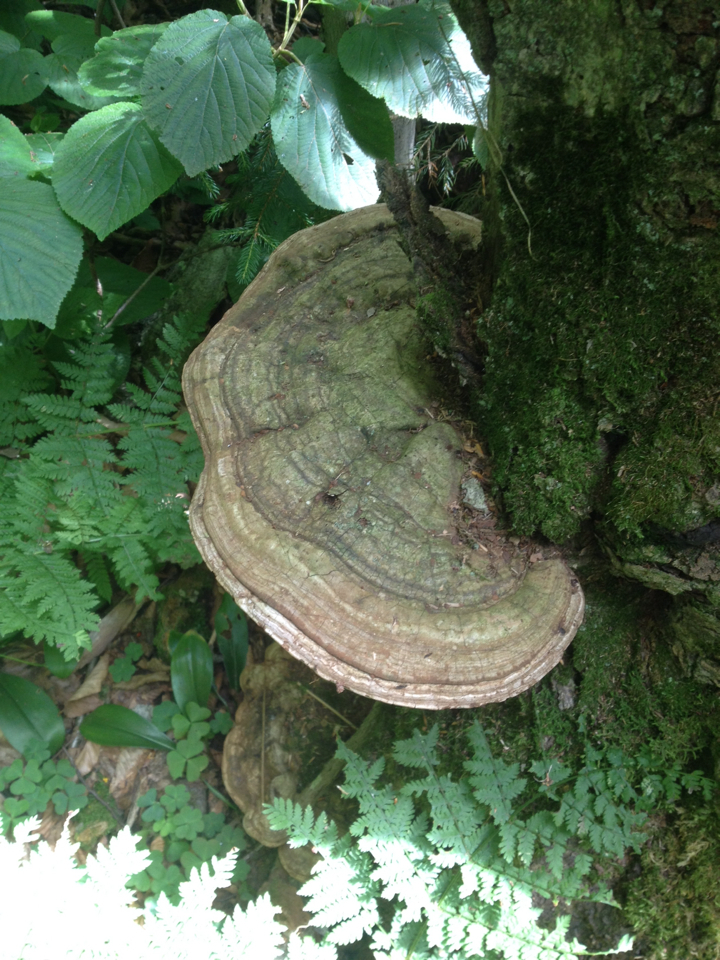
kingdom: Fungi
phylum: Basidiomycota
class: Agaricomycetes
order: Polyporales
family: Polyporaceae
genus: Ganoderma
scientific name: Ganoderma applanatum
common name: Artist's bracket
